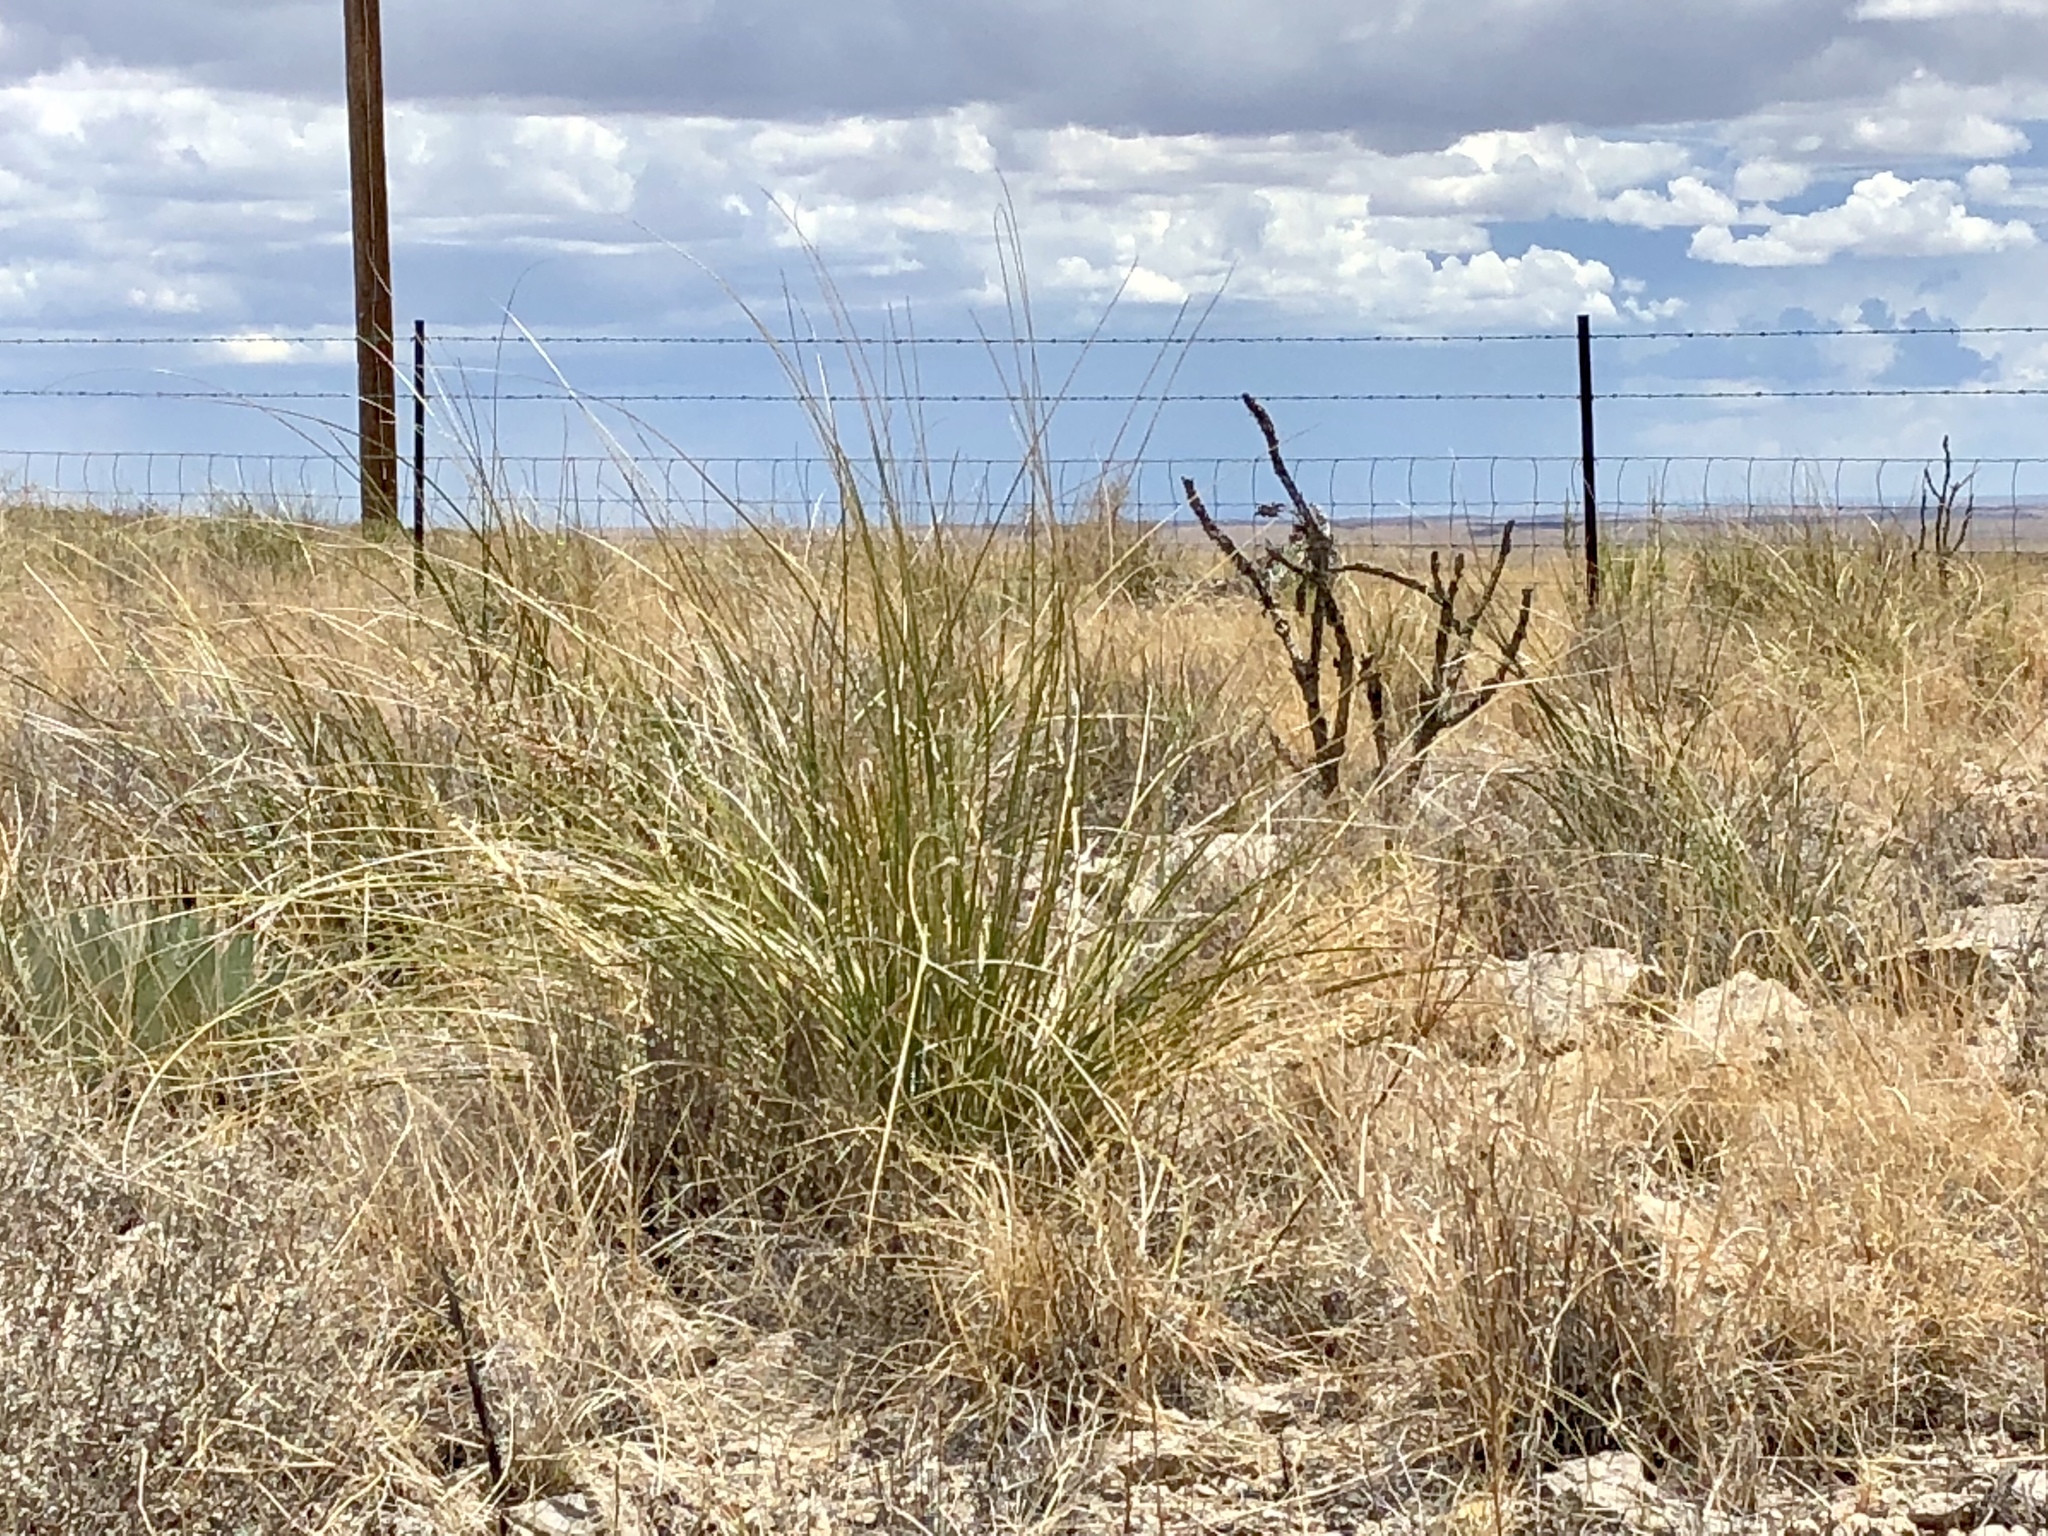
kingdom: Plantae
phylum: Tracheophyta
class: Liliopsida
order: Asparagales
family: Asparagaceae
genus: Nolina
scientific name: Nolina microcarpa
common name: Bear-grass
